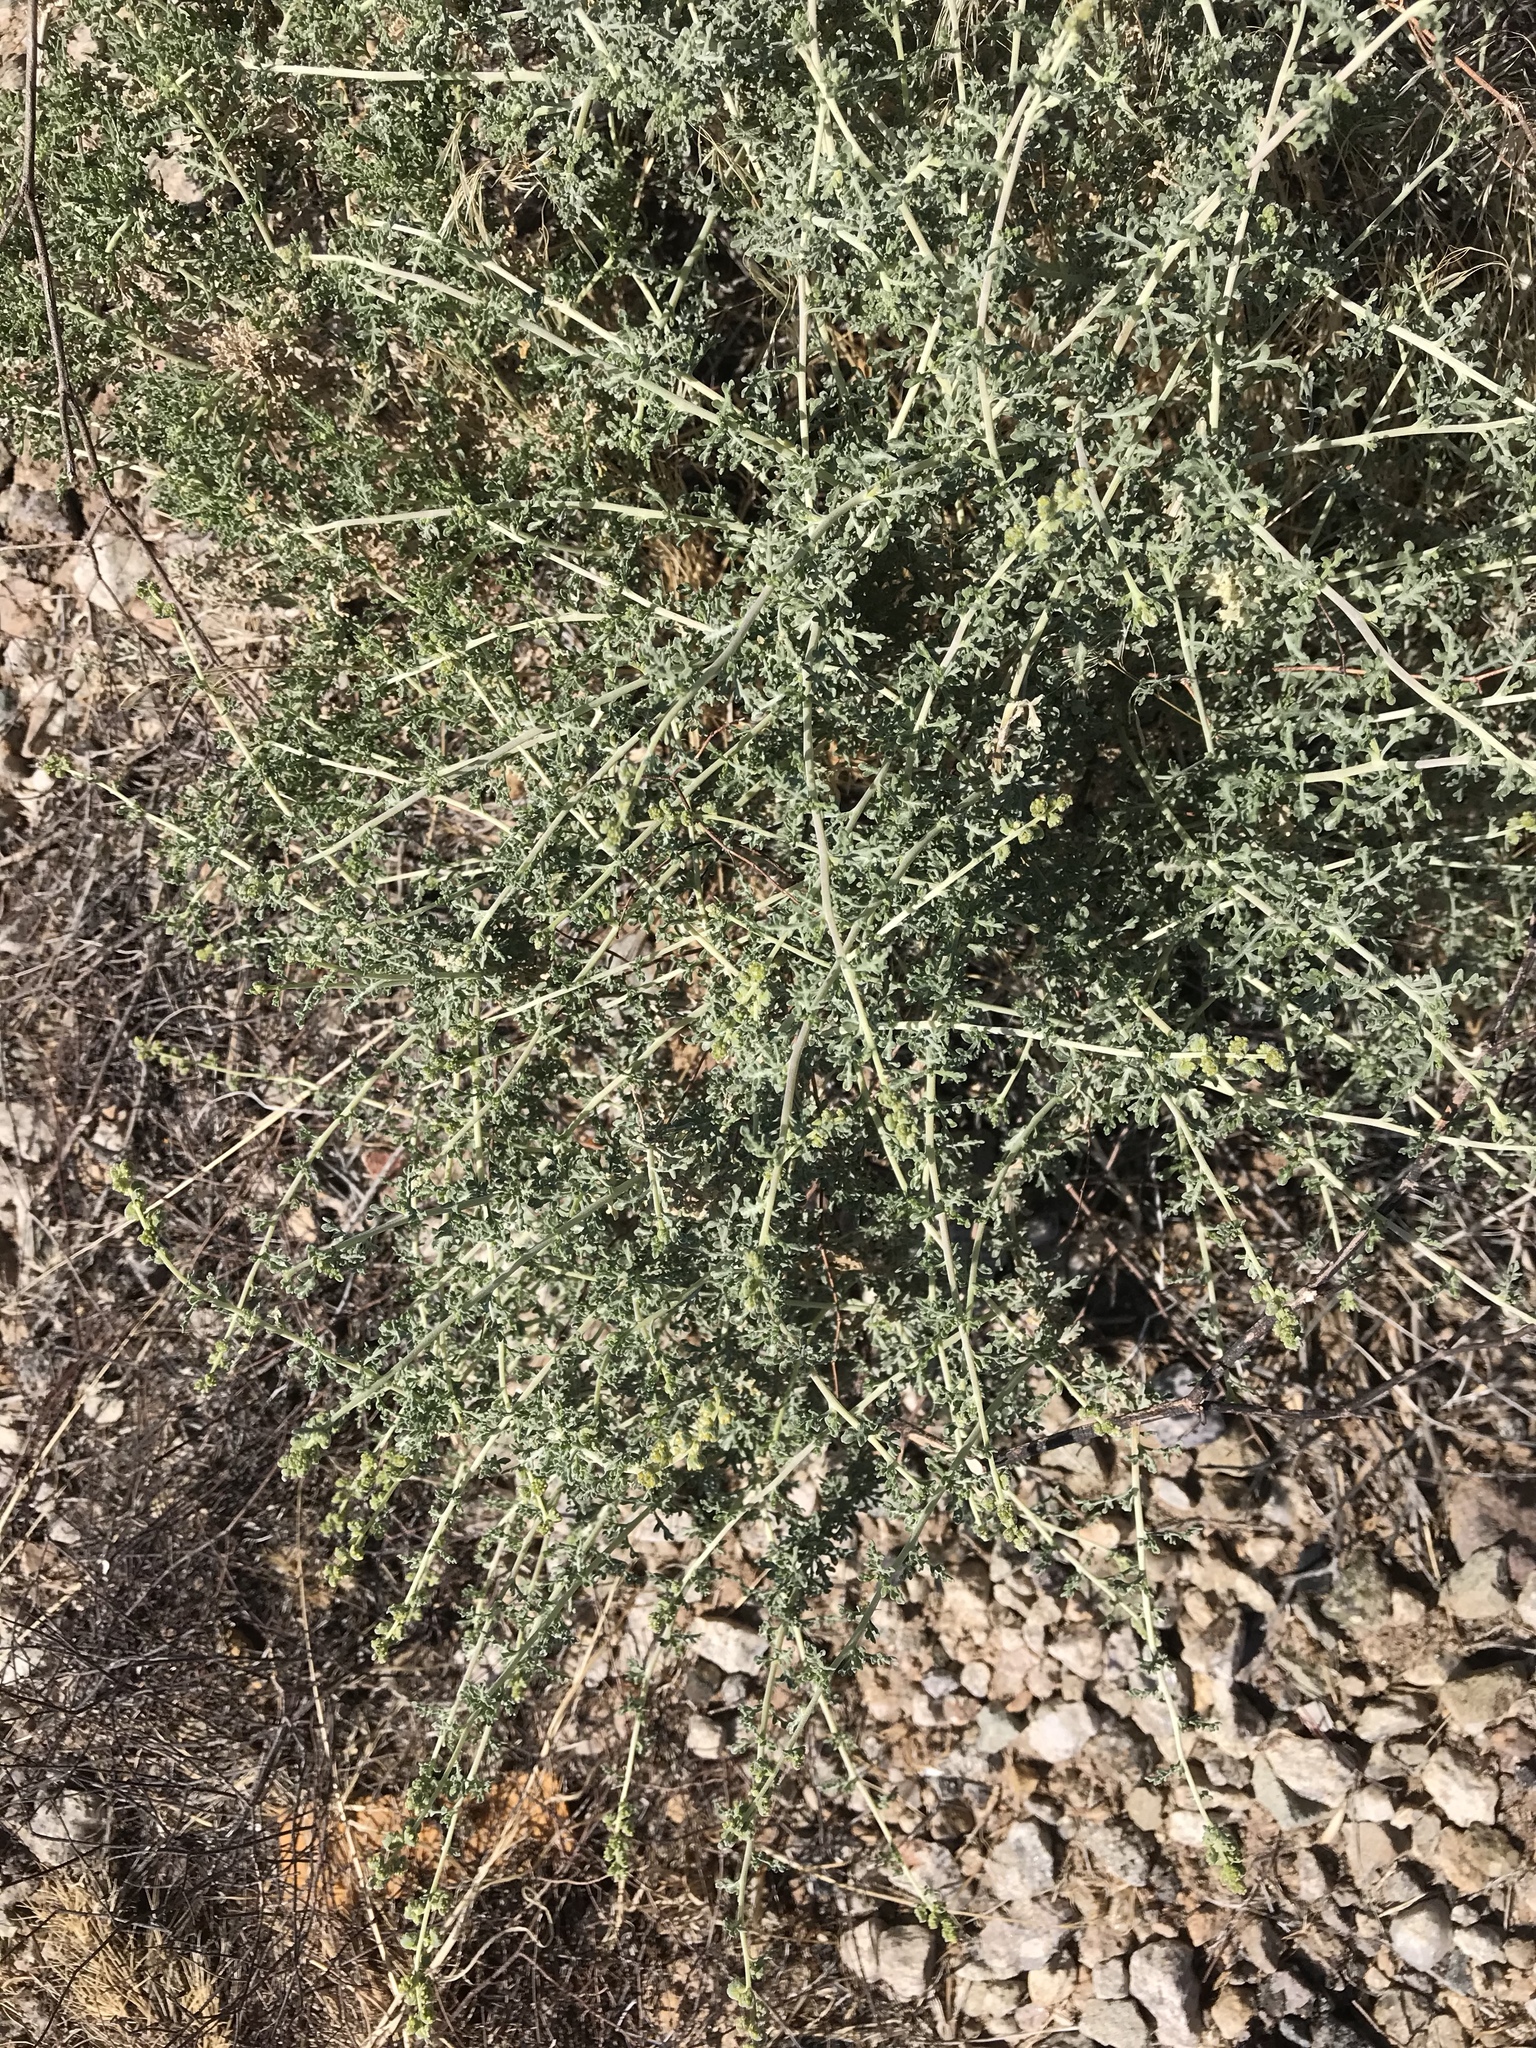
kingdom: Plantae
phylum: Tracheophyta
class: Magnoliopsida
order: Asterales
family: Asteraceae
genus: Ambrosia
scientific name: Ambrosia dumosa
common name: Bur-sage
